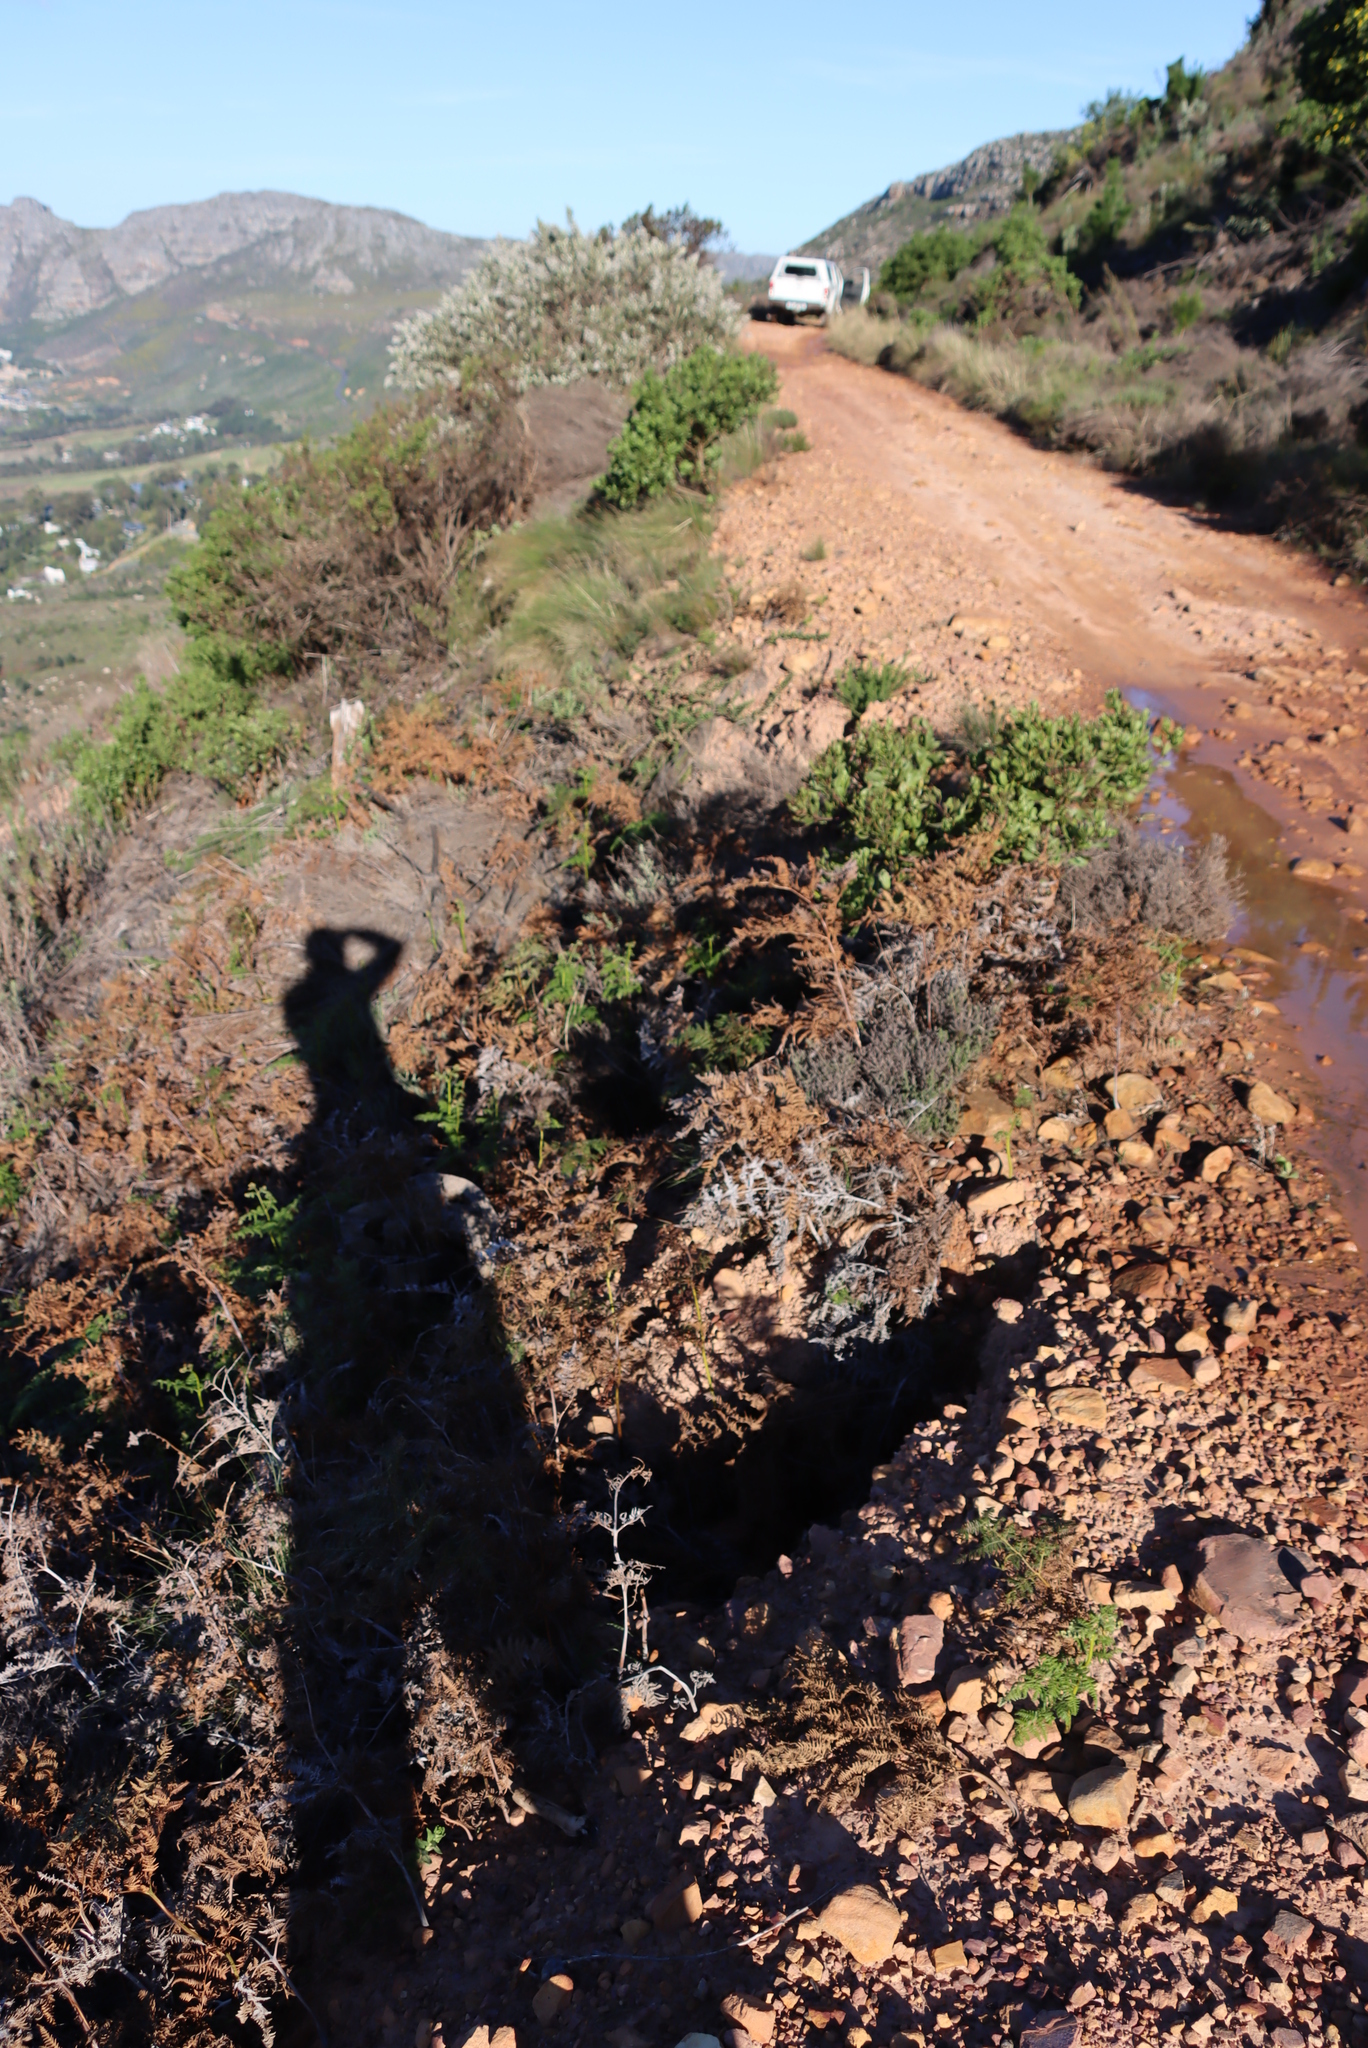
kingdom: Plantae
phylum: Tracheophyta
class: Polypodiopsida
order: Polypodiales
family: Dennstaedtiaceae
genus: Pteridium
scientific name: Pteridium aquilinum
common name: Bracken
